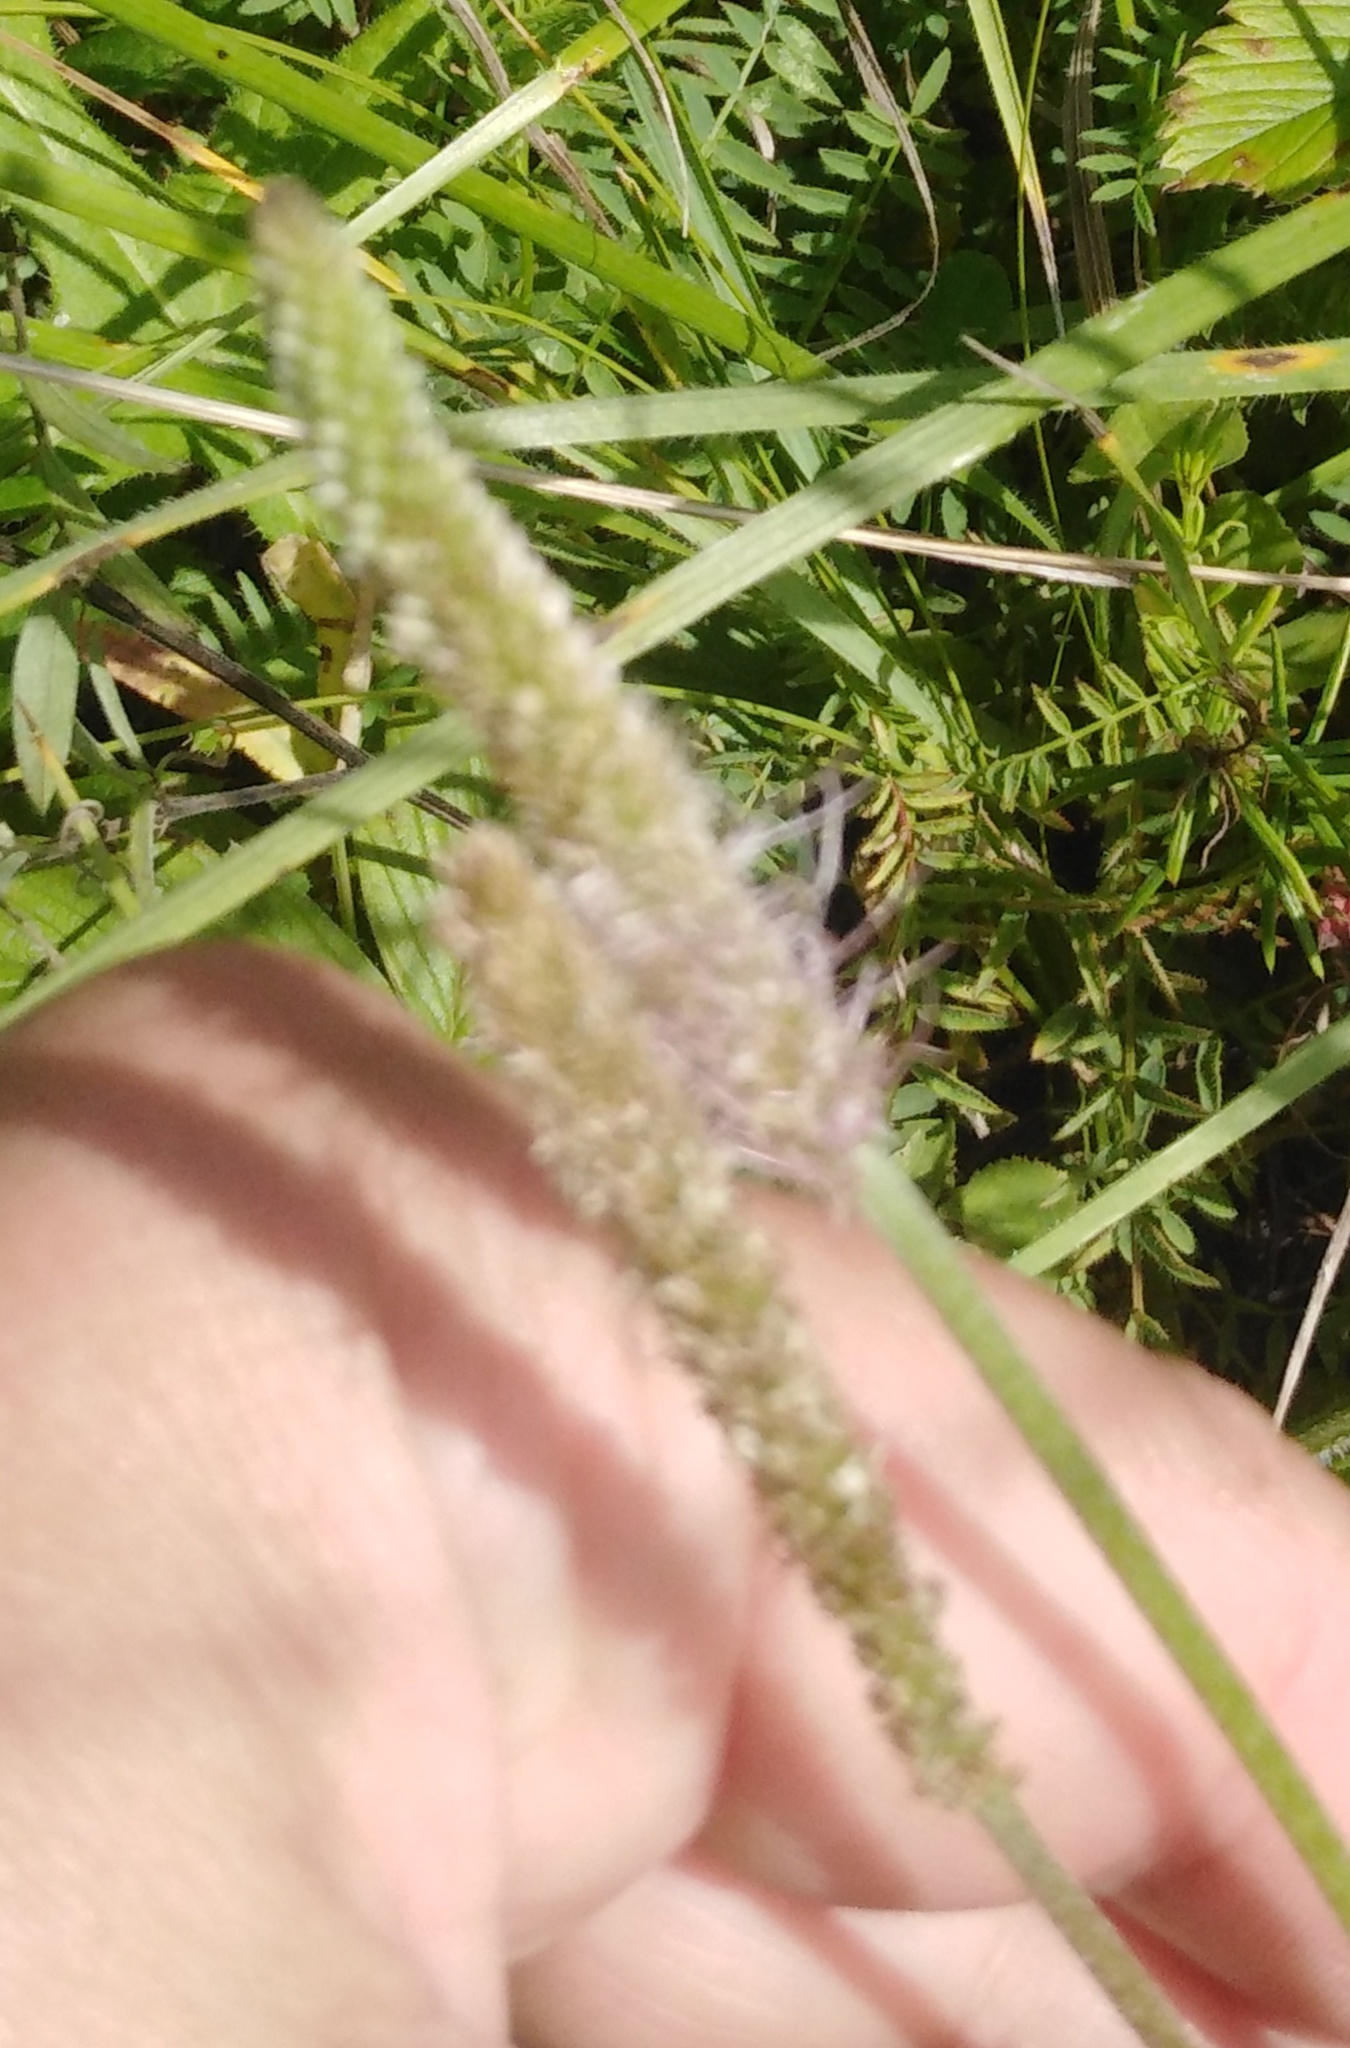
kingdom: Plantae
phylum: Tracheophyta
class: Magnoliopsida
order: Lamiales
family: Plantaginaceae
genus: Plantago
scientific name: Plantago media
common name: Hoary plantain
